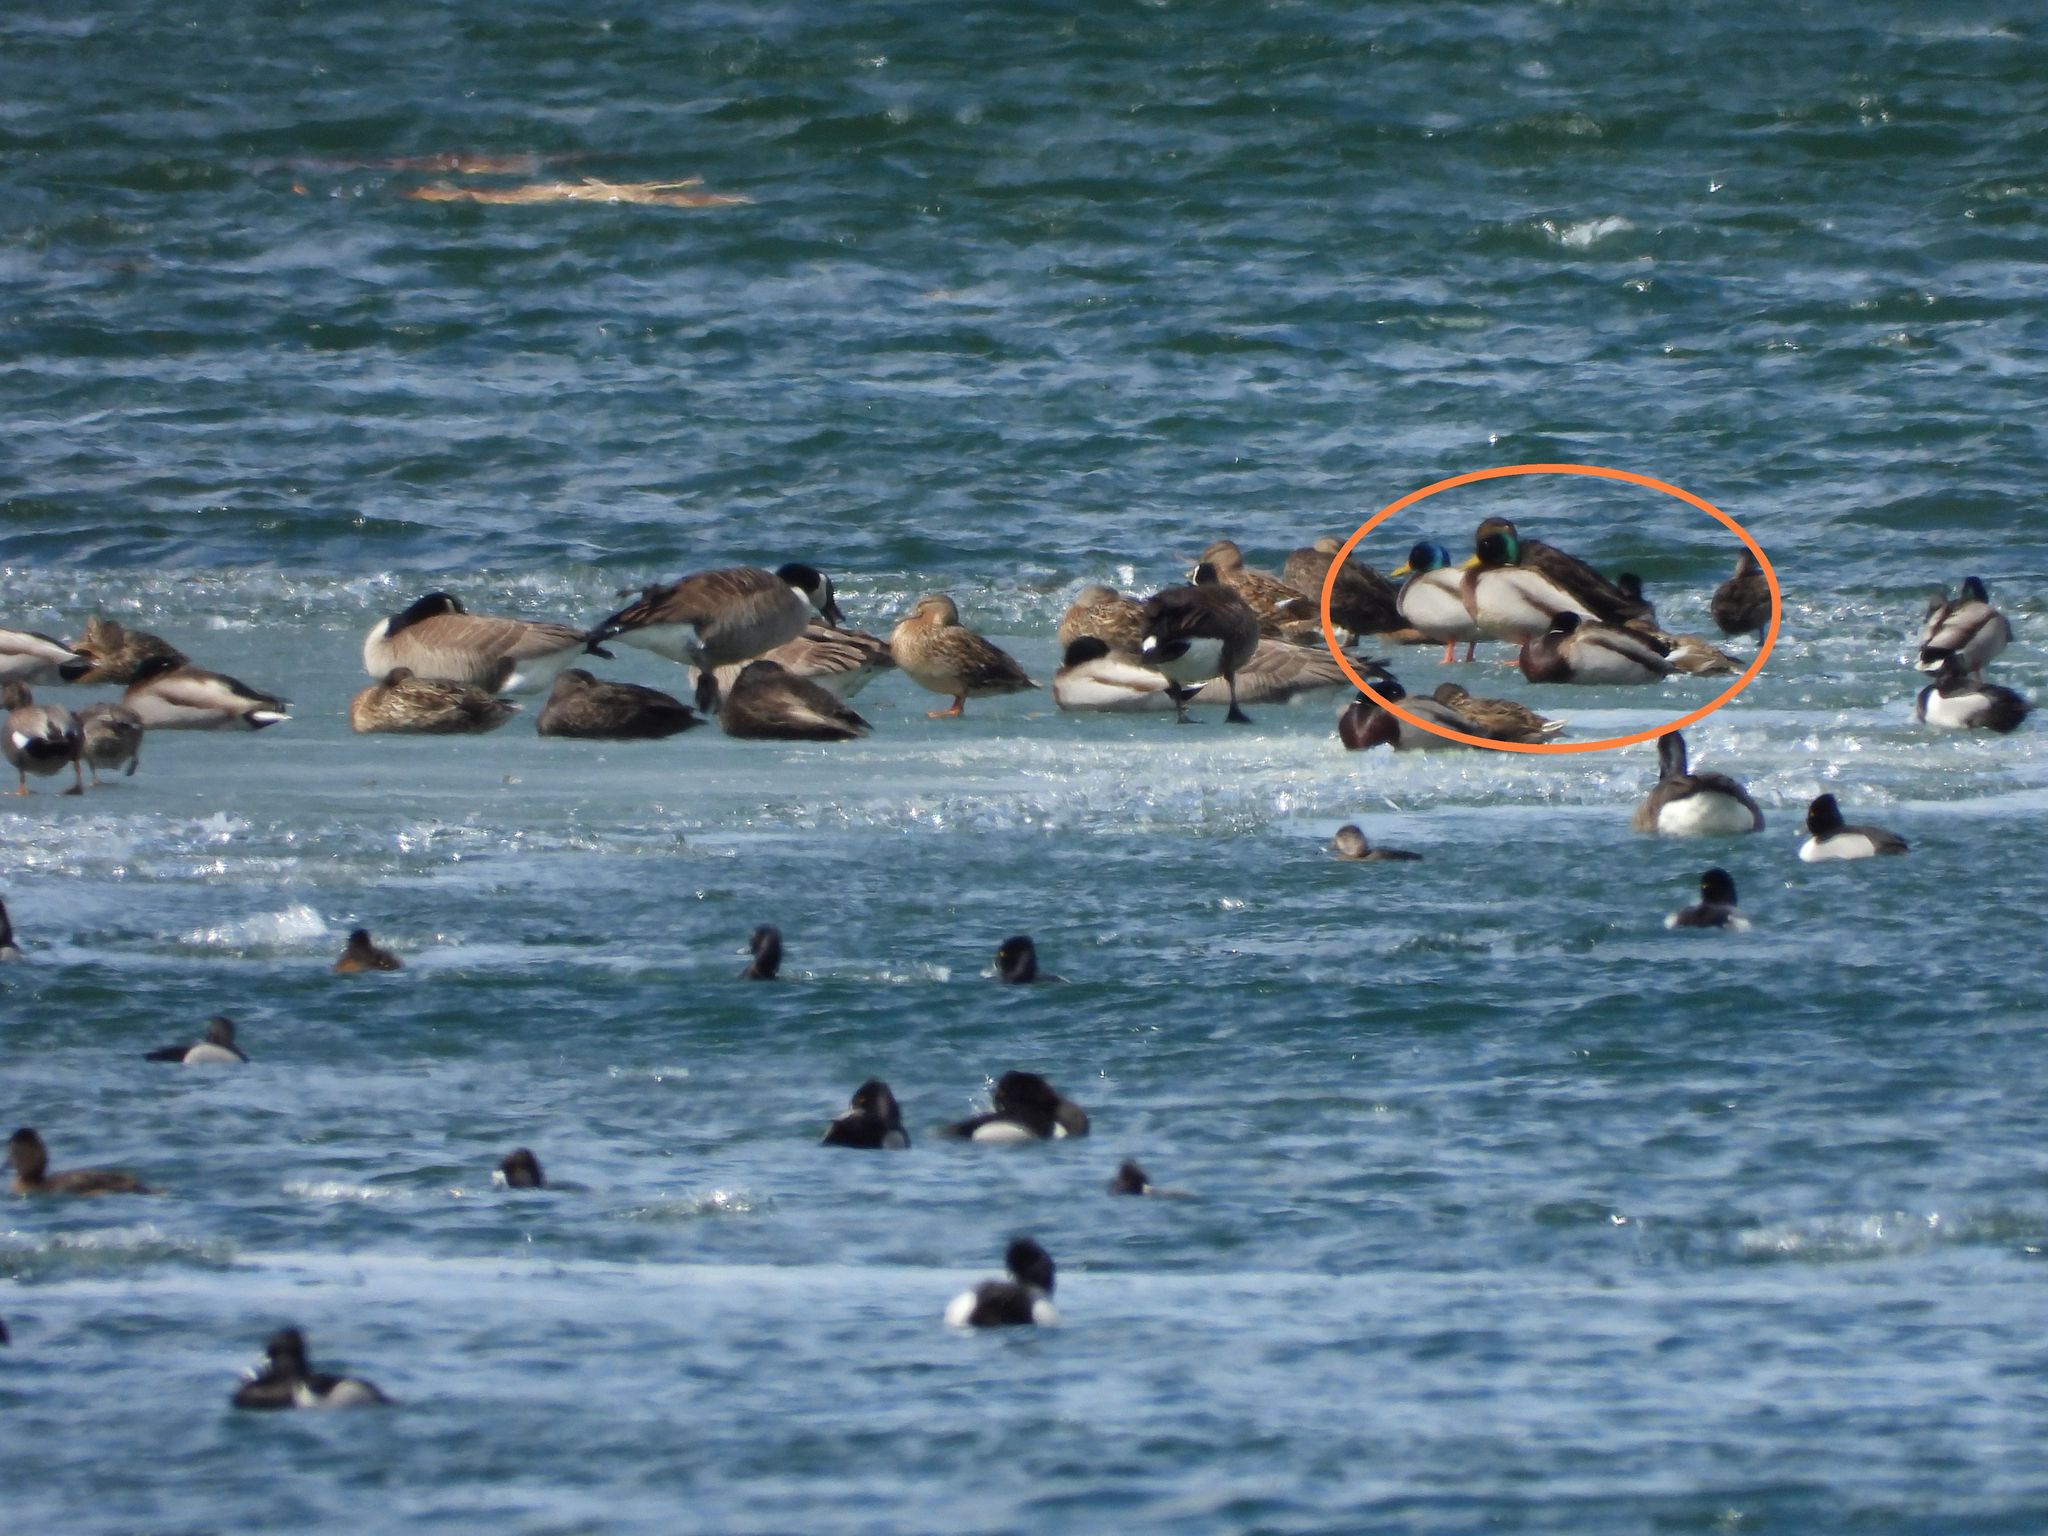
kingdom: Animalia
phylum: Chordata
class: Aves
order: Anseriformes
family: Anatidae
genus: Anas
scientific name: Anas platyrhynchos
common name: Mallard
